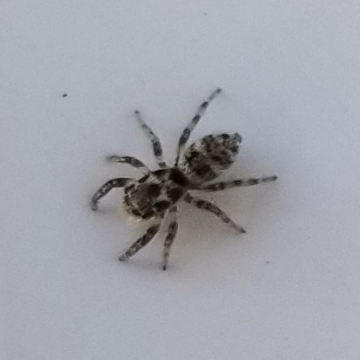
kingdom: Animalia
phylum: Arthropoda
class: Arachnida
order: Araneae
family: Salticidae
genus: Salticus
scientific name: Salticus scenicus
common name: Zebra jumper
